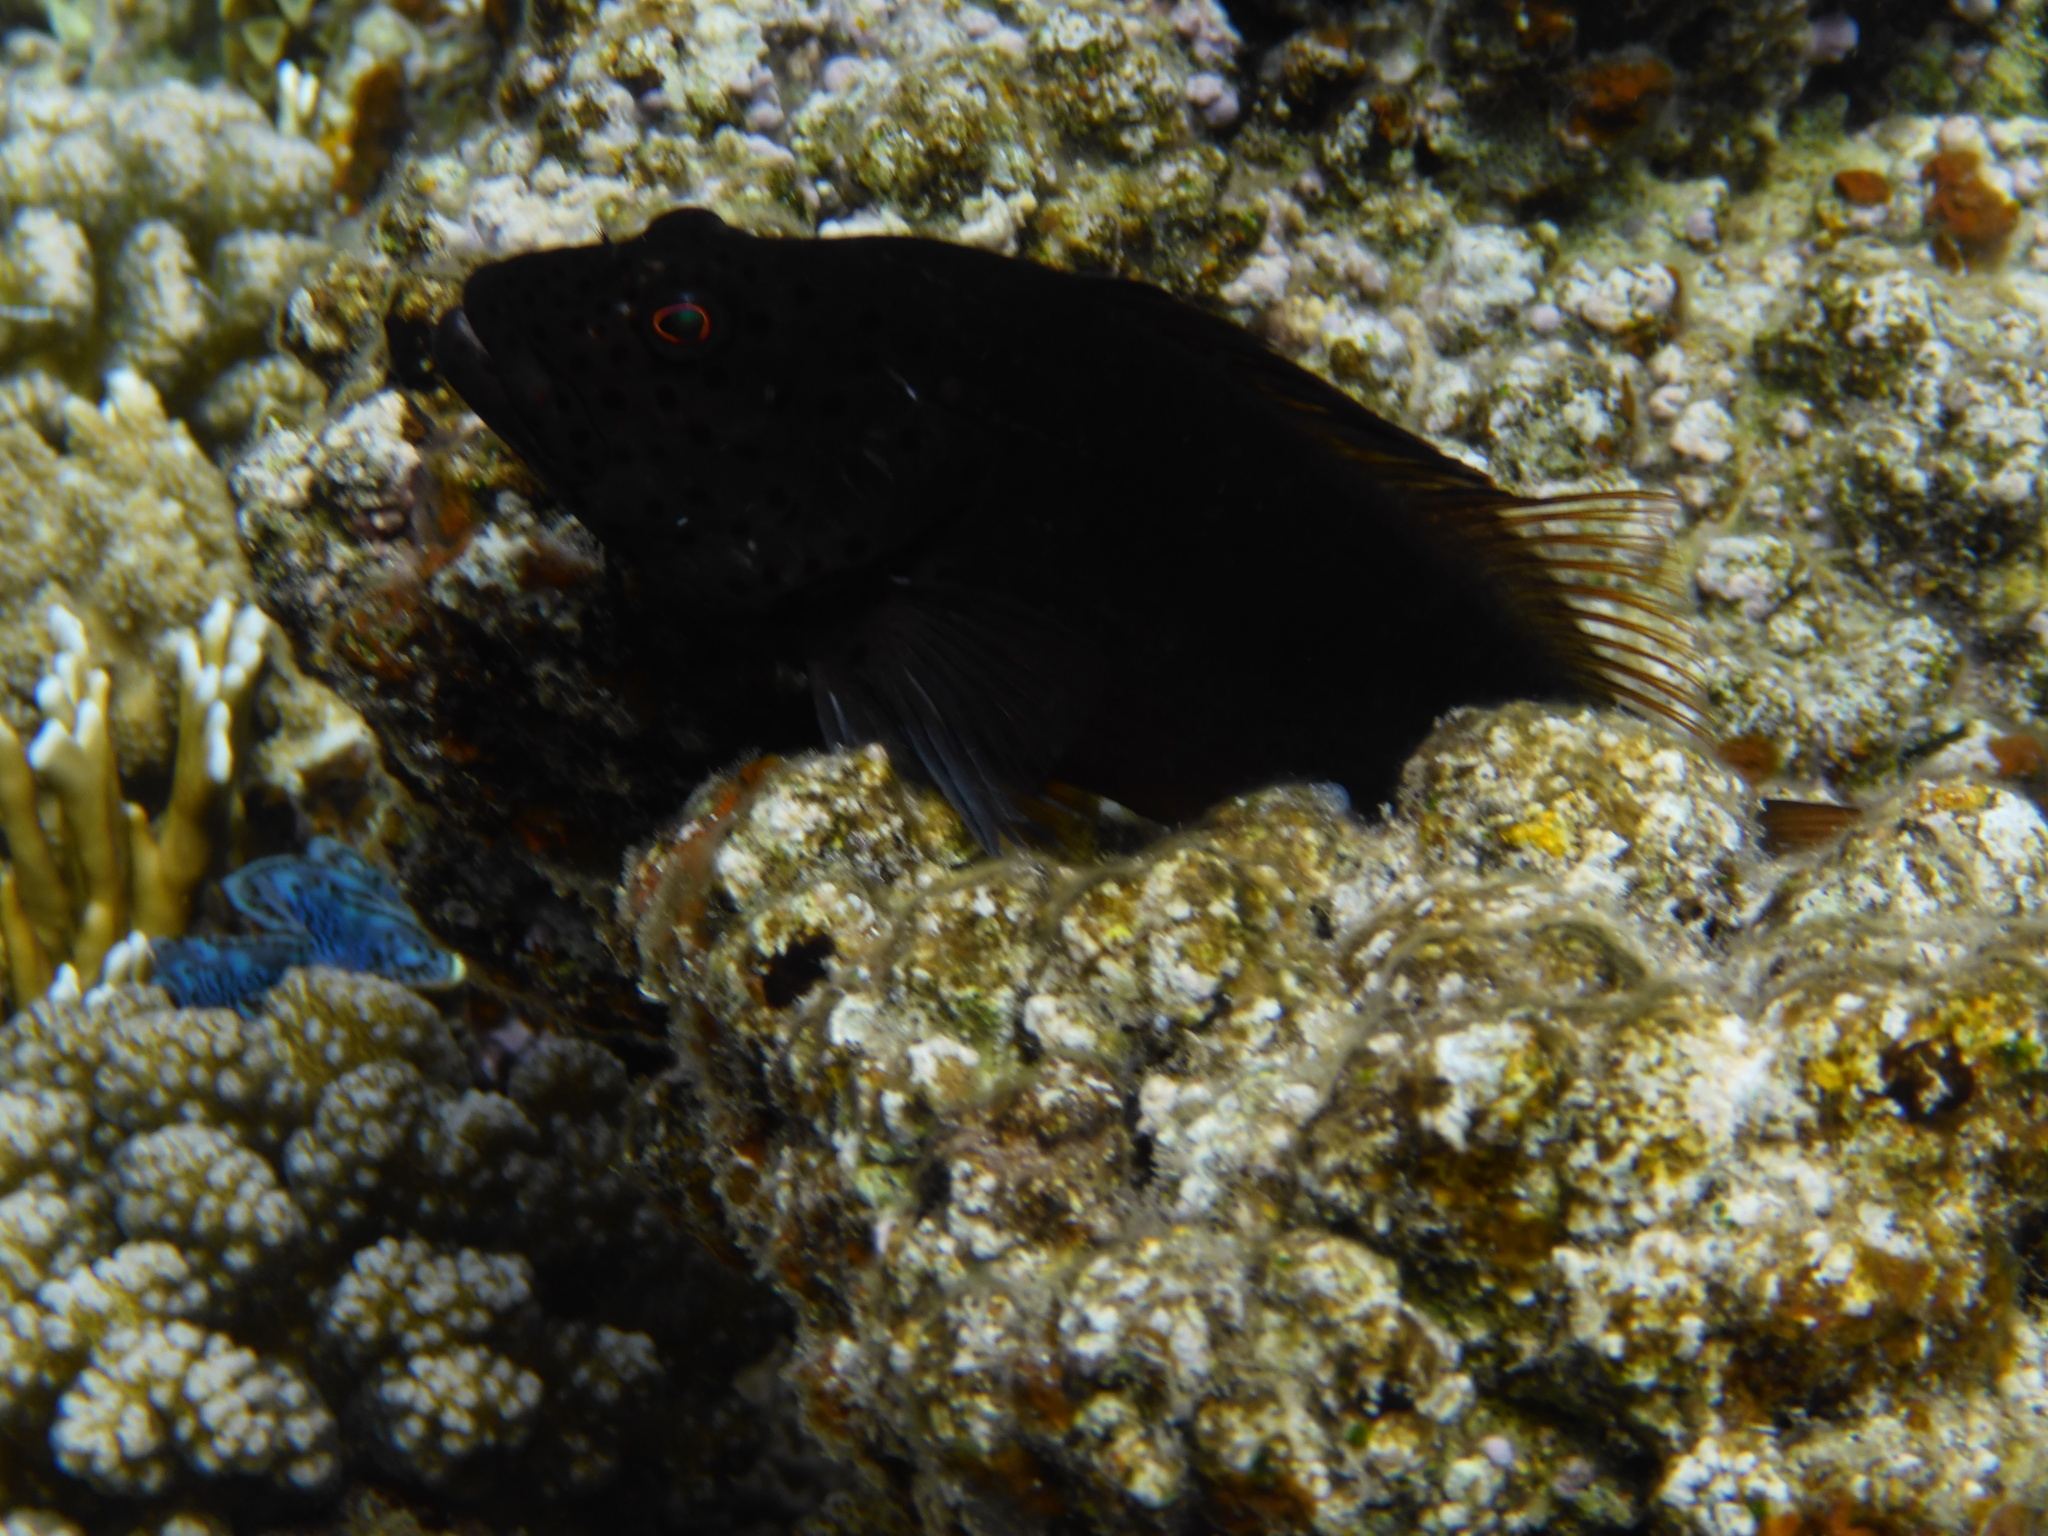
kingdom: Animalia
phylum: Chordata
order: Perciformes
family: Cirrhitidae
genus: Paracirrhites
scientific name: Paracirrhites forsteri
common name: Freckled hawkfish
